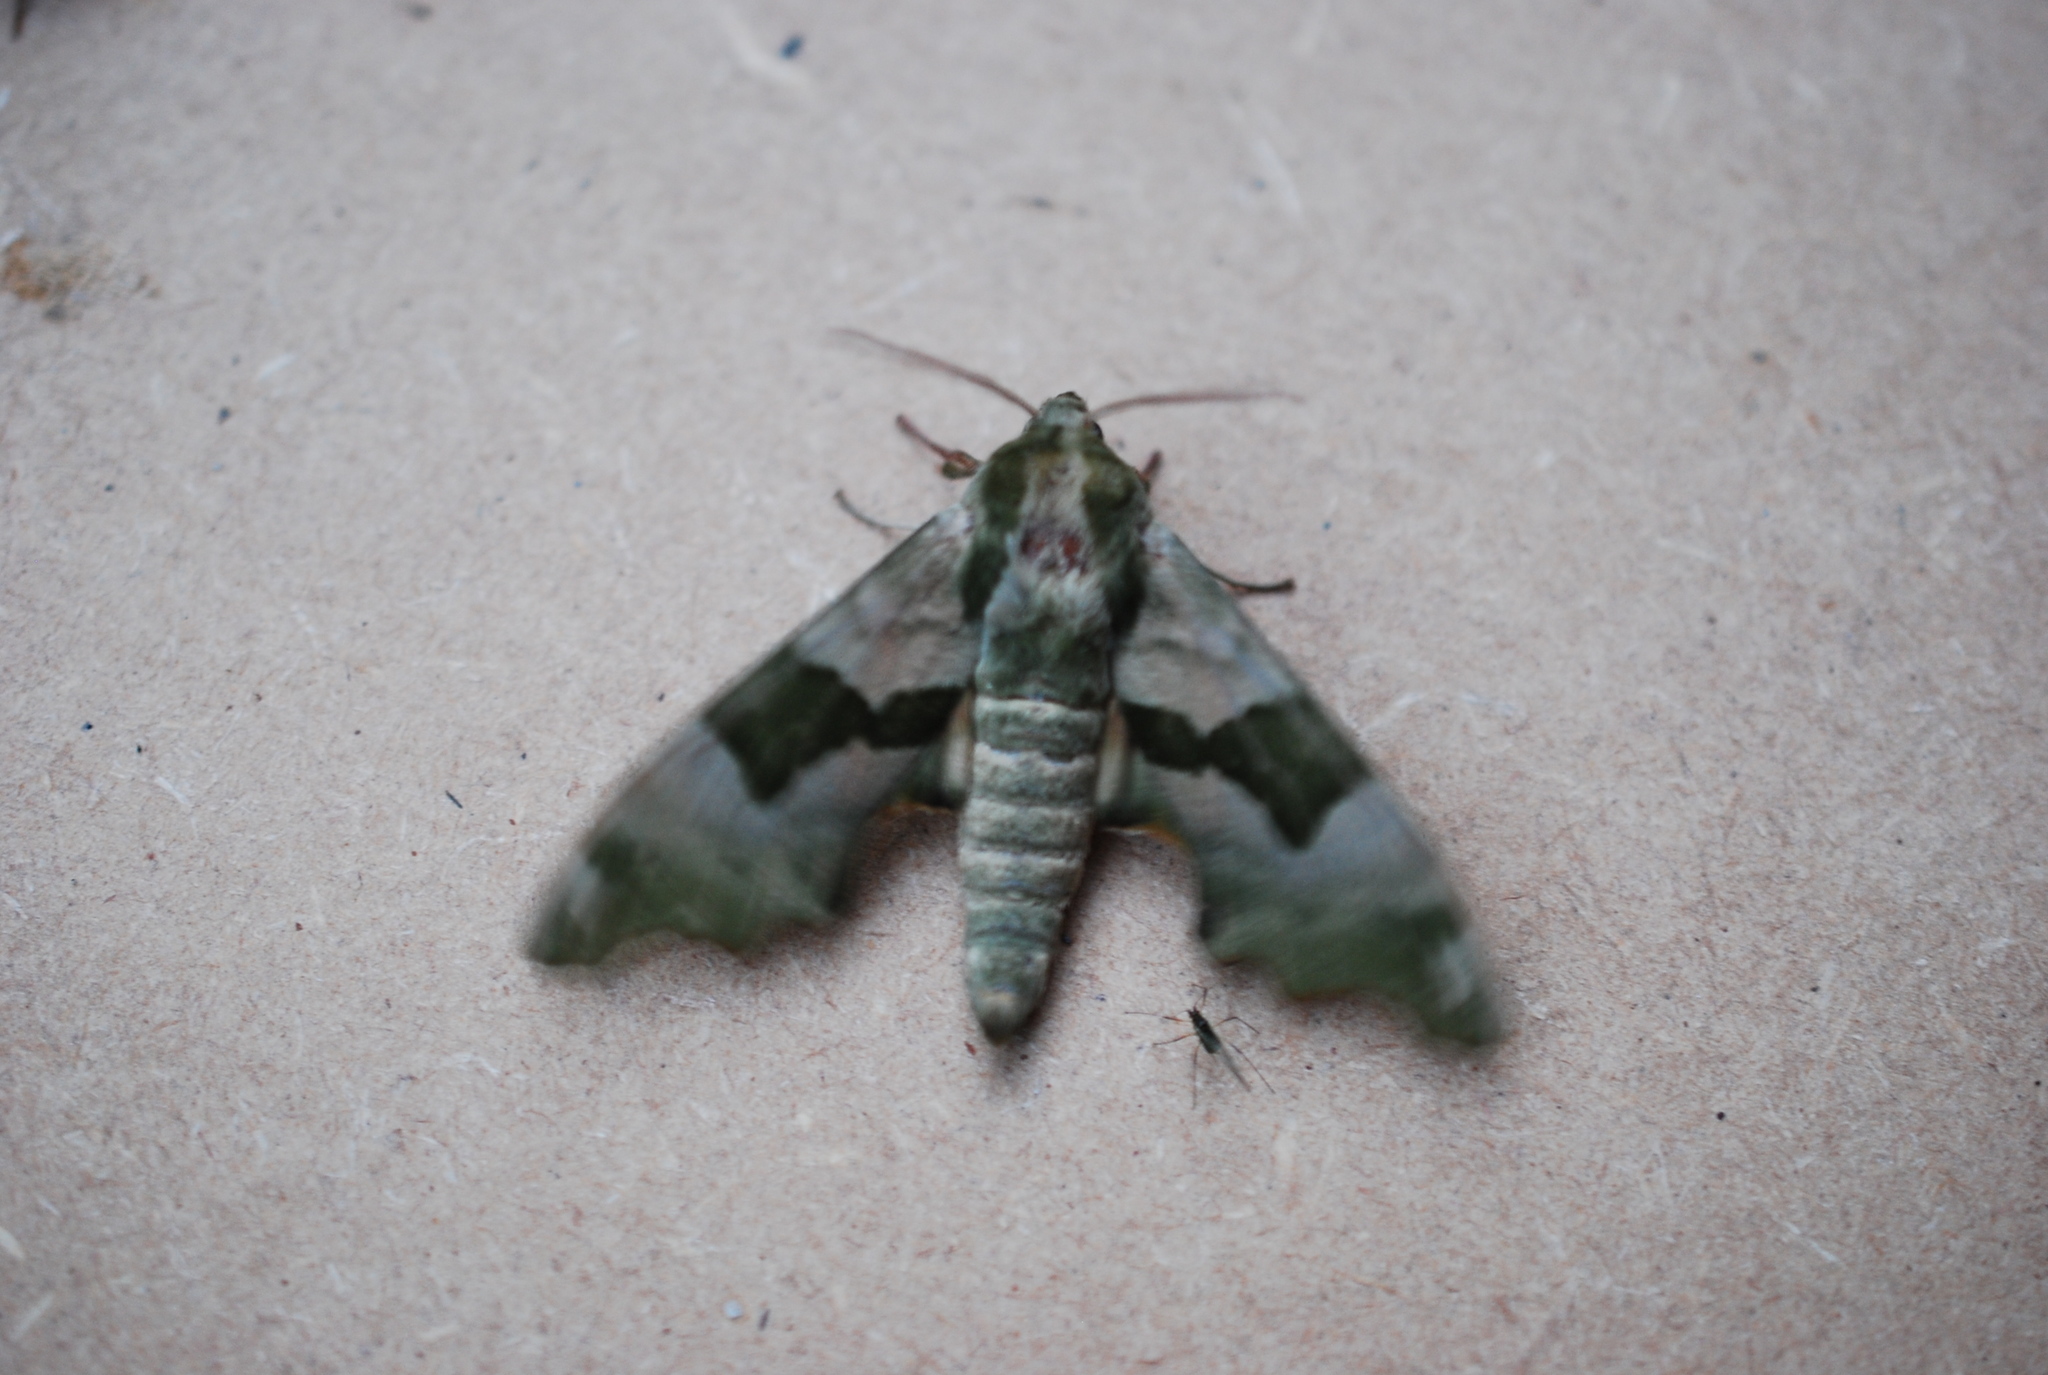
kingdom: Animalia
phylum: Arthropoda
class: Insecta
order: Lepidoptera
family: Sphingidae
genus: Mimas
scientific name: Mimas tiliae
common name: Lime hawk-moth
